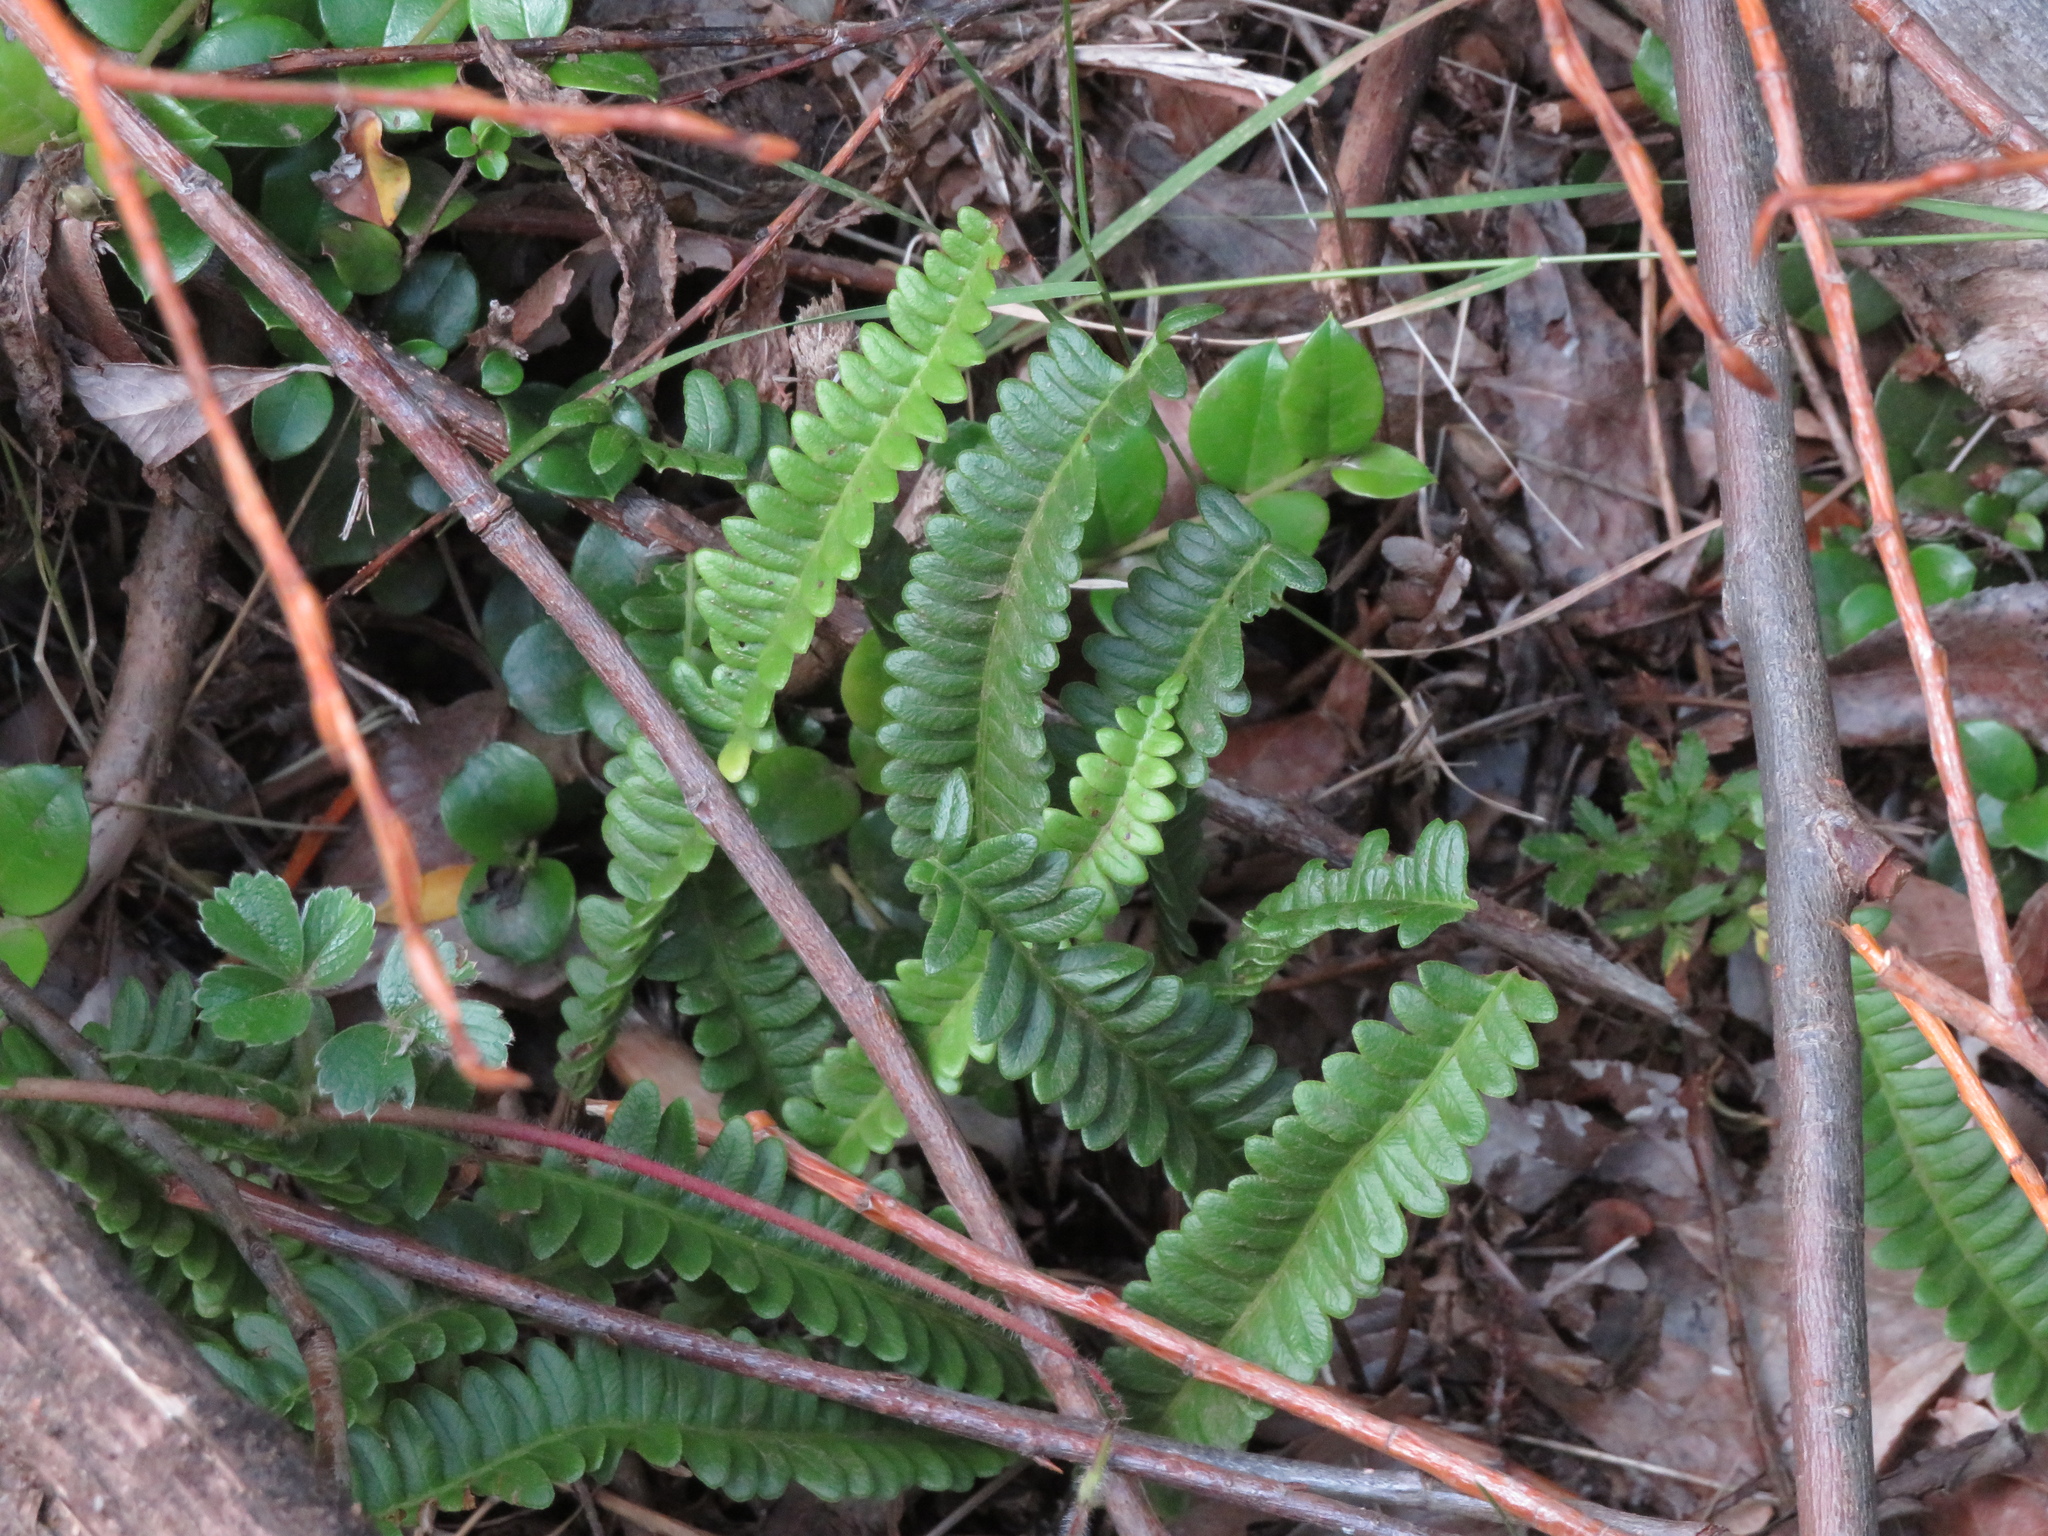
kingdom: Plantae
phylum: Tracheophyta
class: Polypodiopsida
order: Polypodiales
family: Blechnaceae
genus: Austroblechnum
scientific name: Austroblechnum penna-marina
